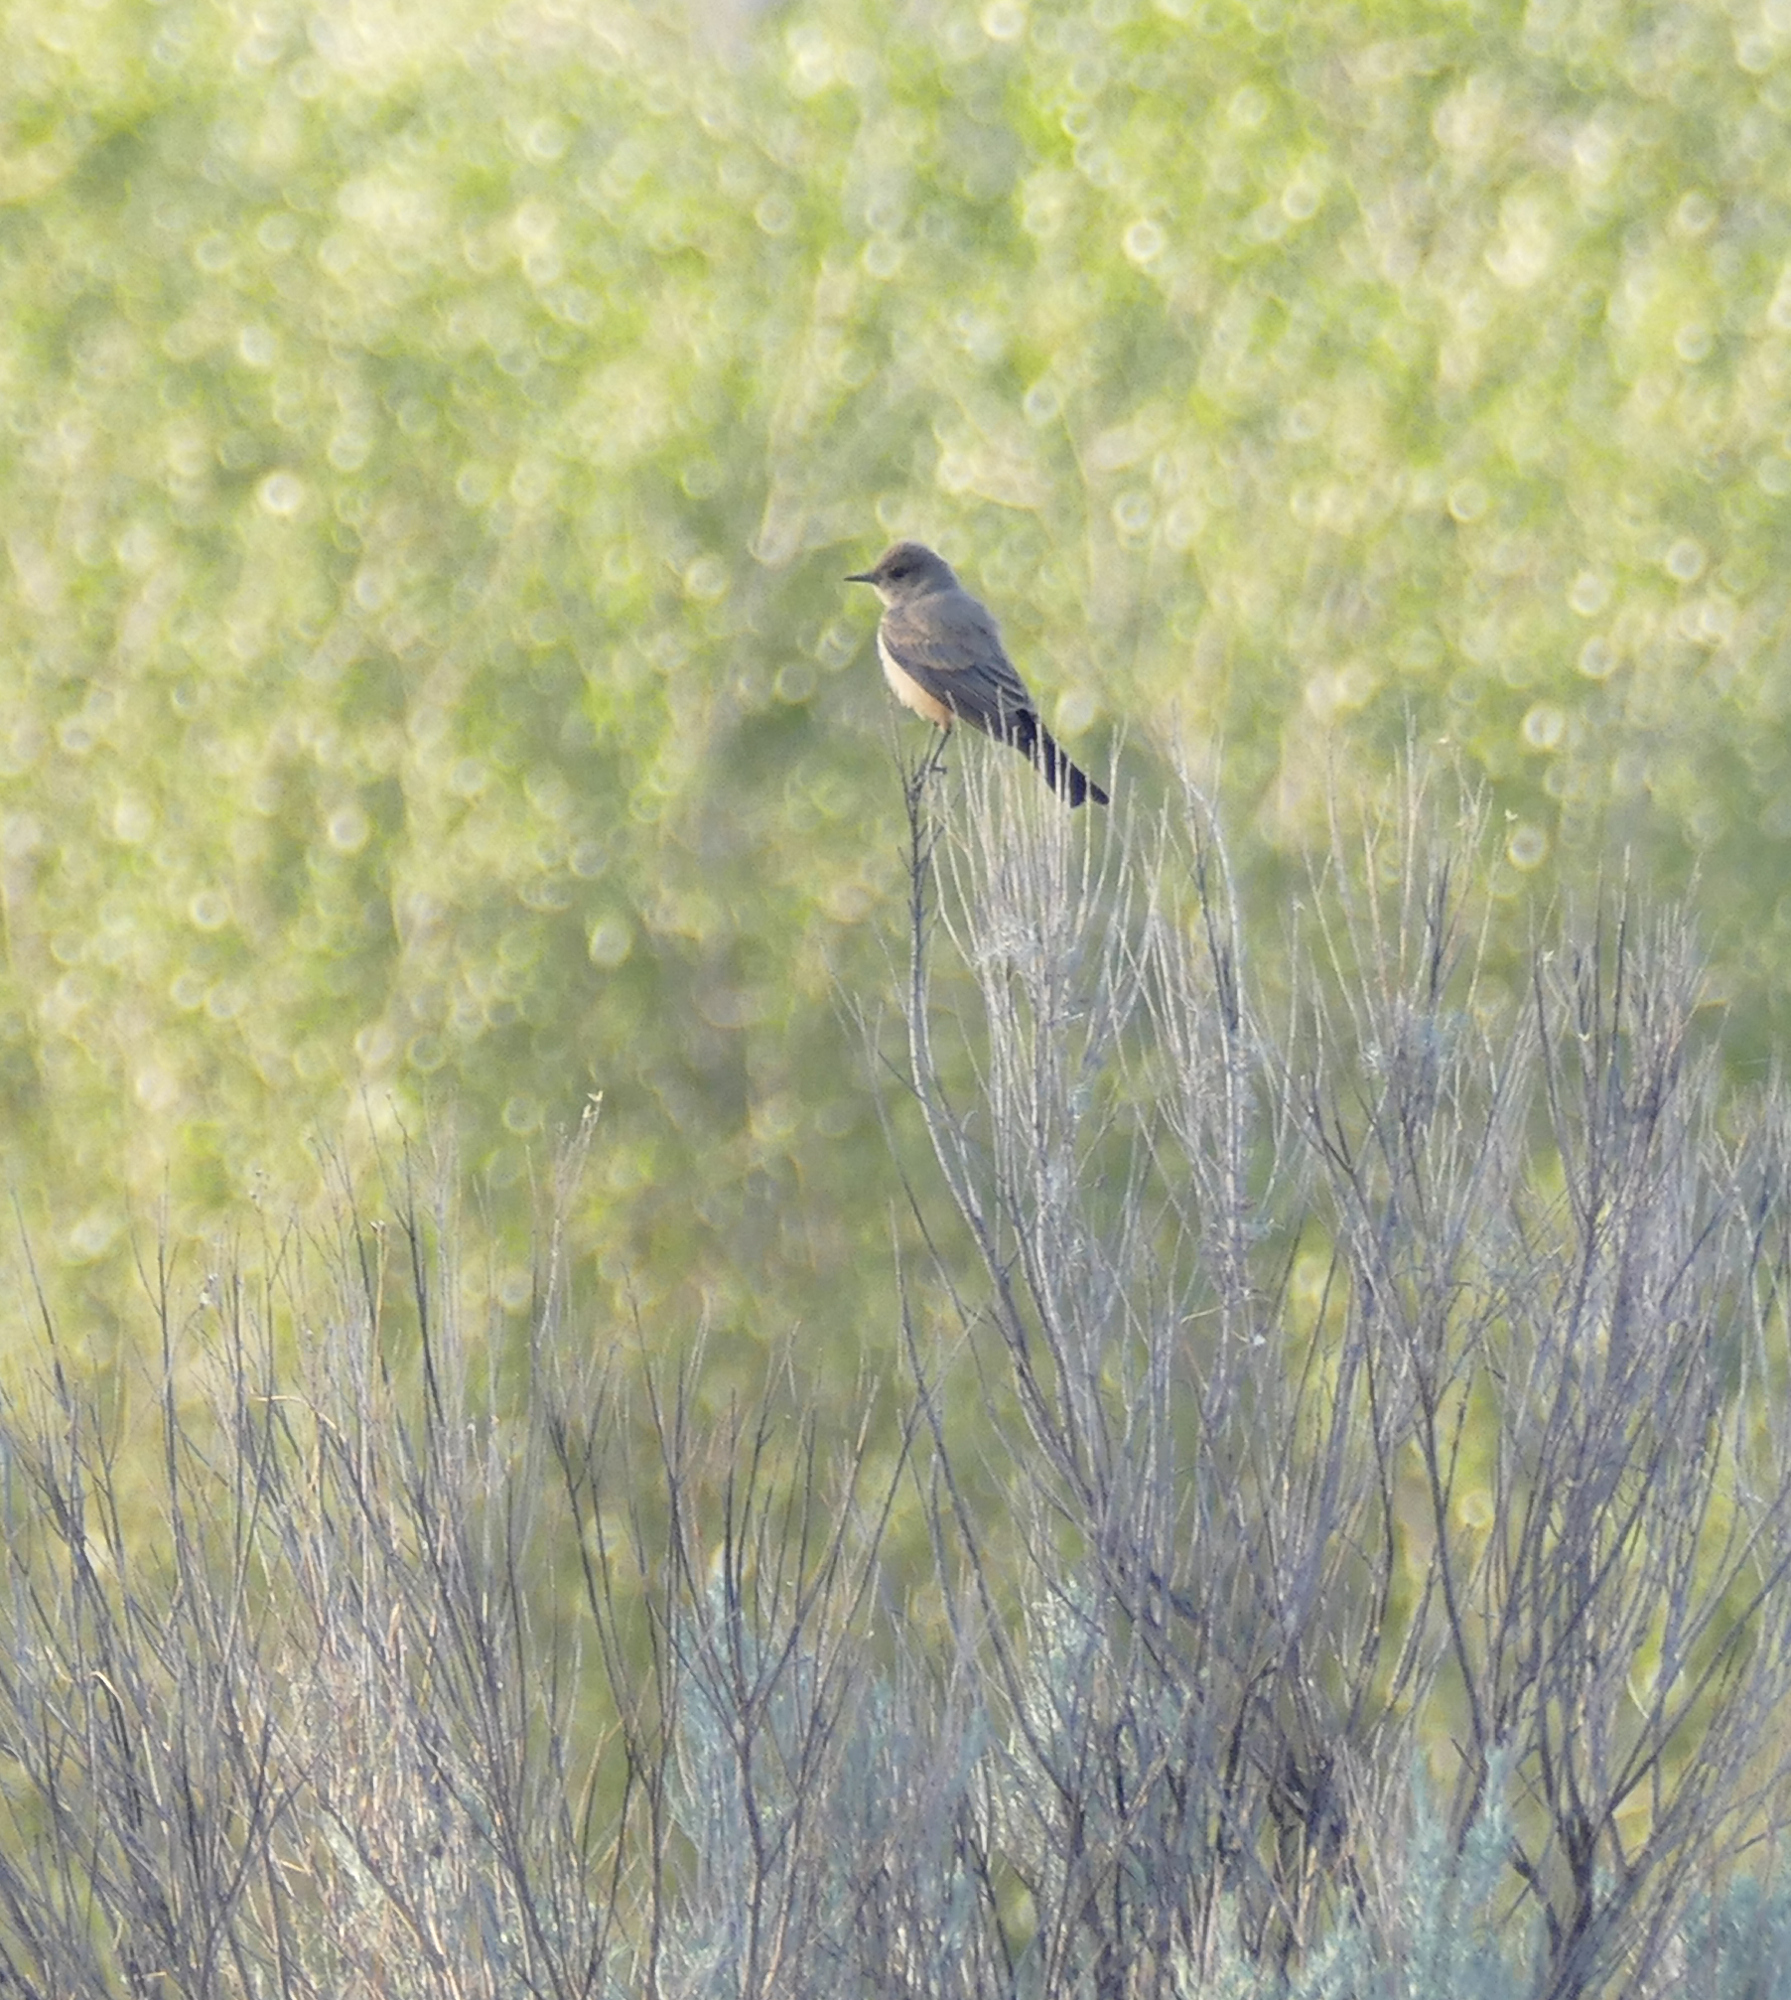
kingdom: Animalia
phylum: Chordata
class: Aves
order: Passeriformes
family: Tyrannidae
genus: Sayornis
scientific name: Sayornis saya
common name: Say's phoebe
